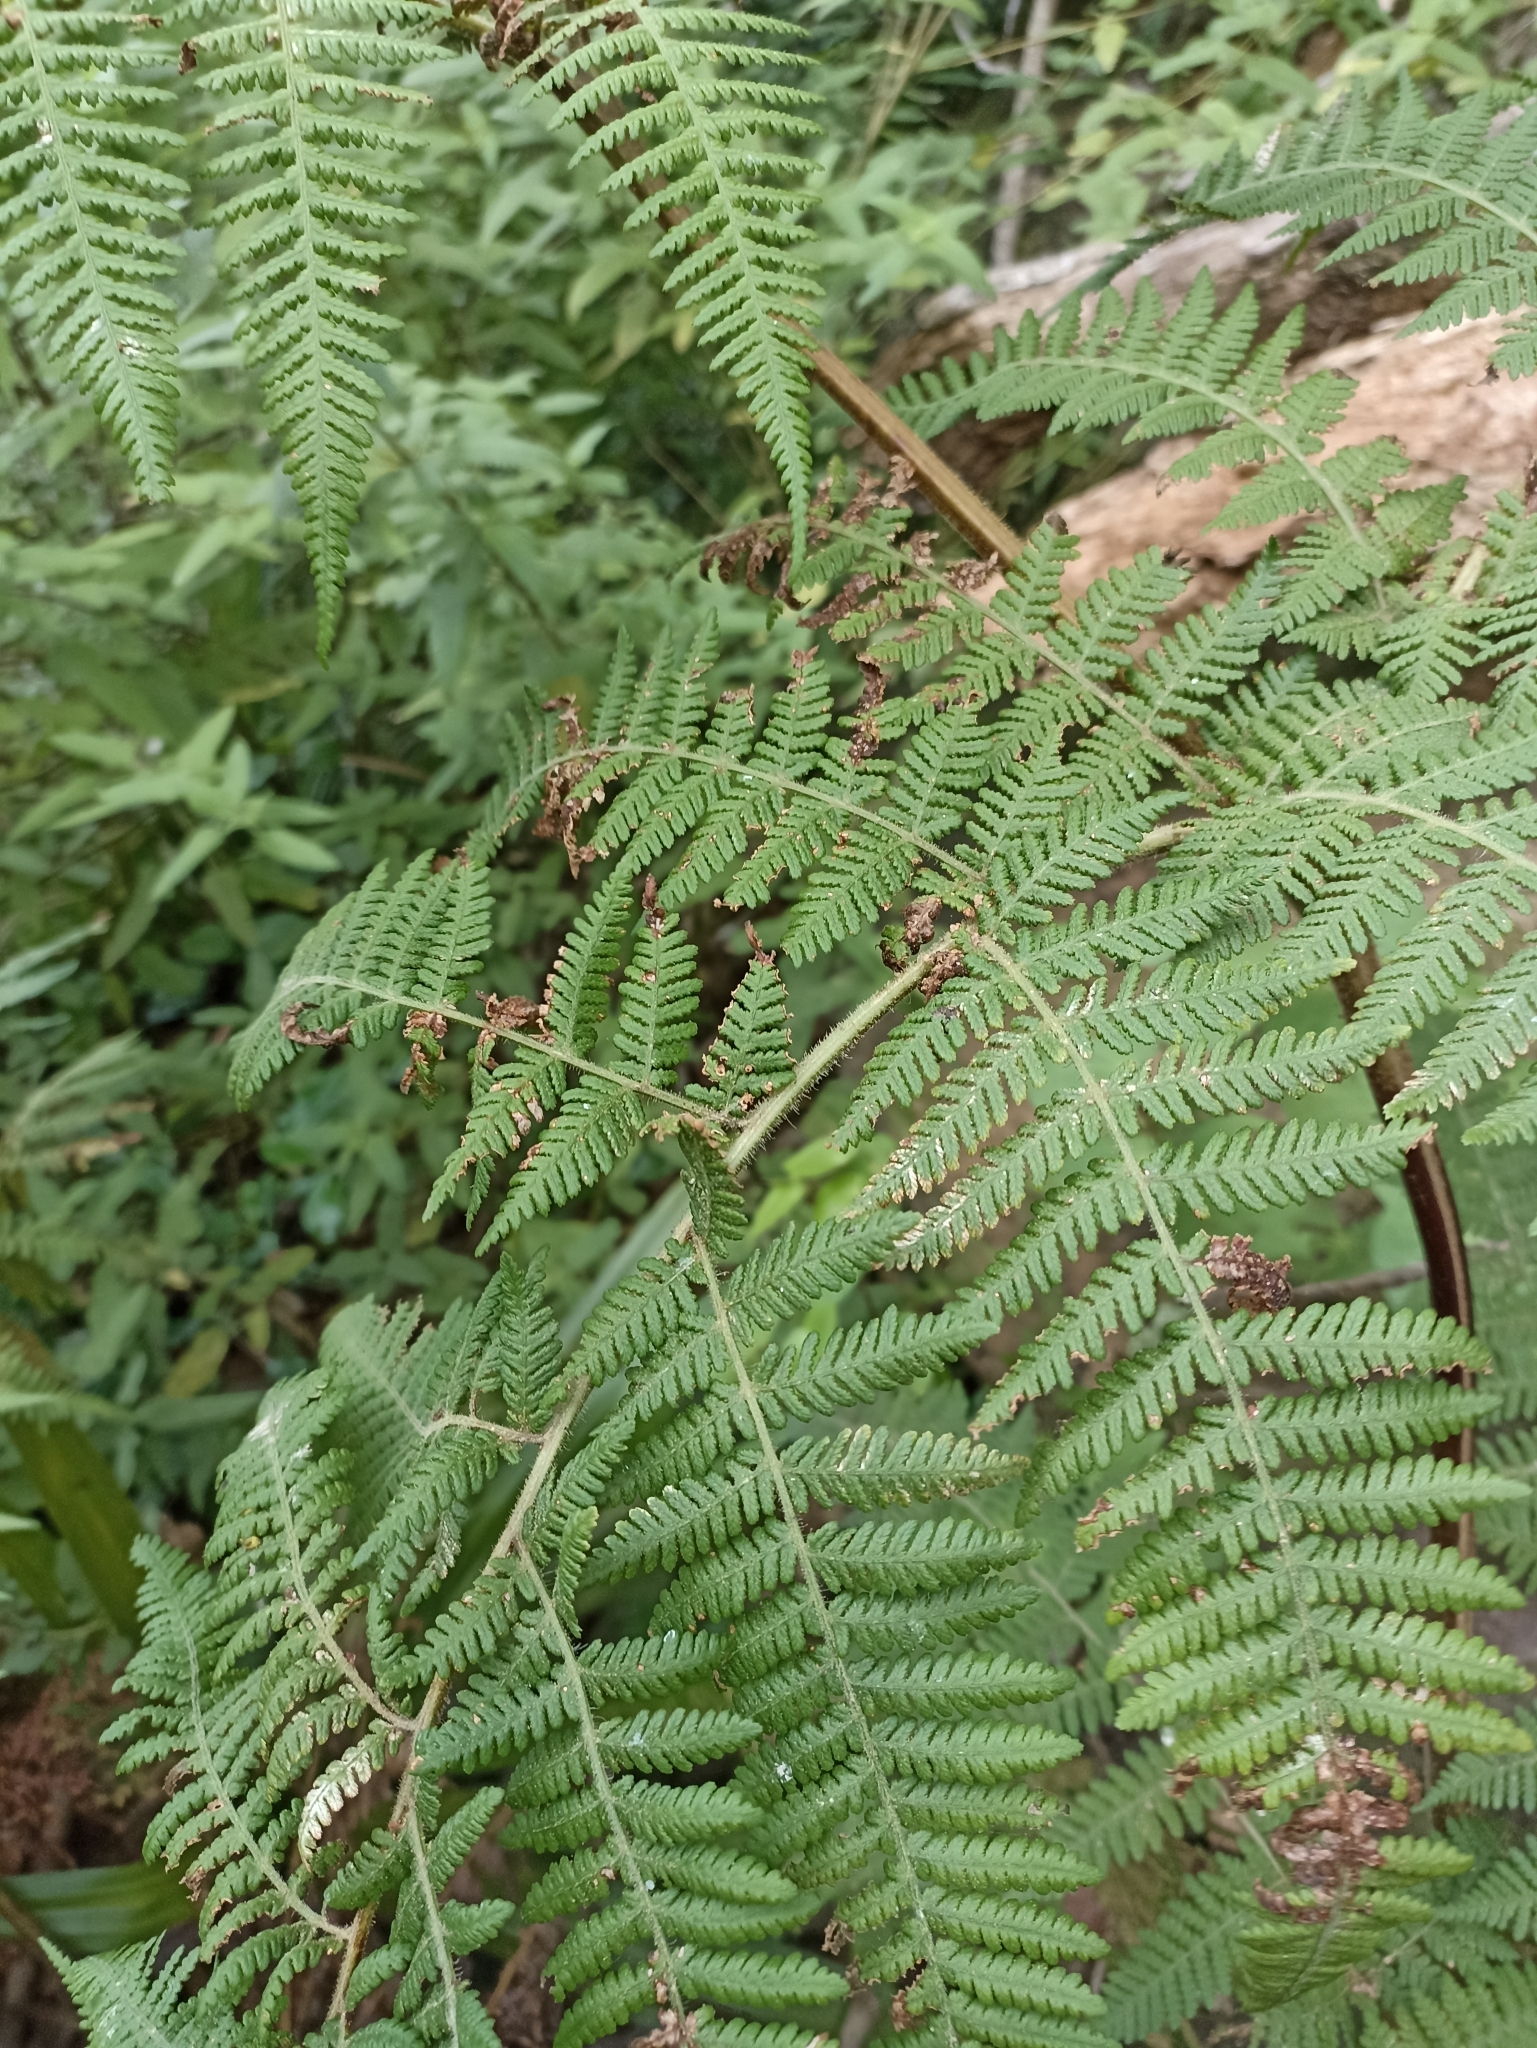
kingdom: Plantae
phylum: Tracheophyta
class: Polypodiopsida
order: Polypodiales
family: Dennstaedtiaceae
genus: Hypolepis
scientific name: Hypolepis ambigua
